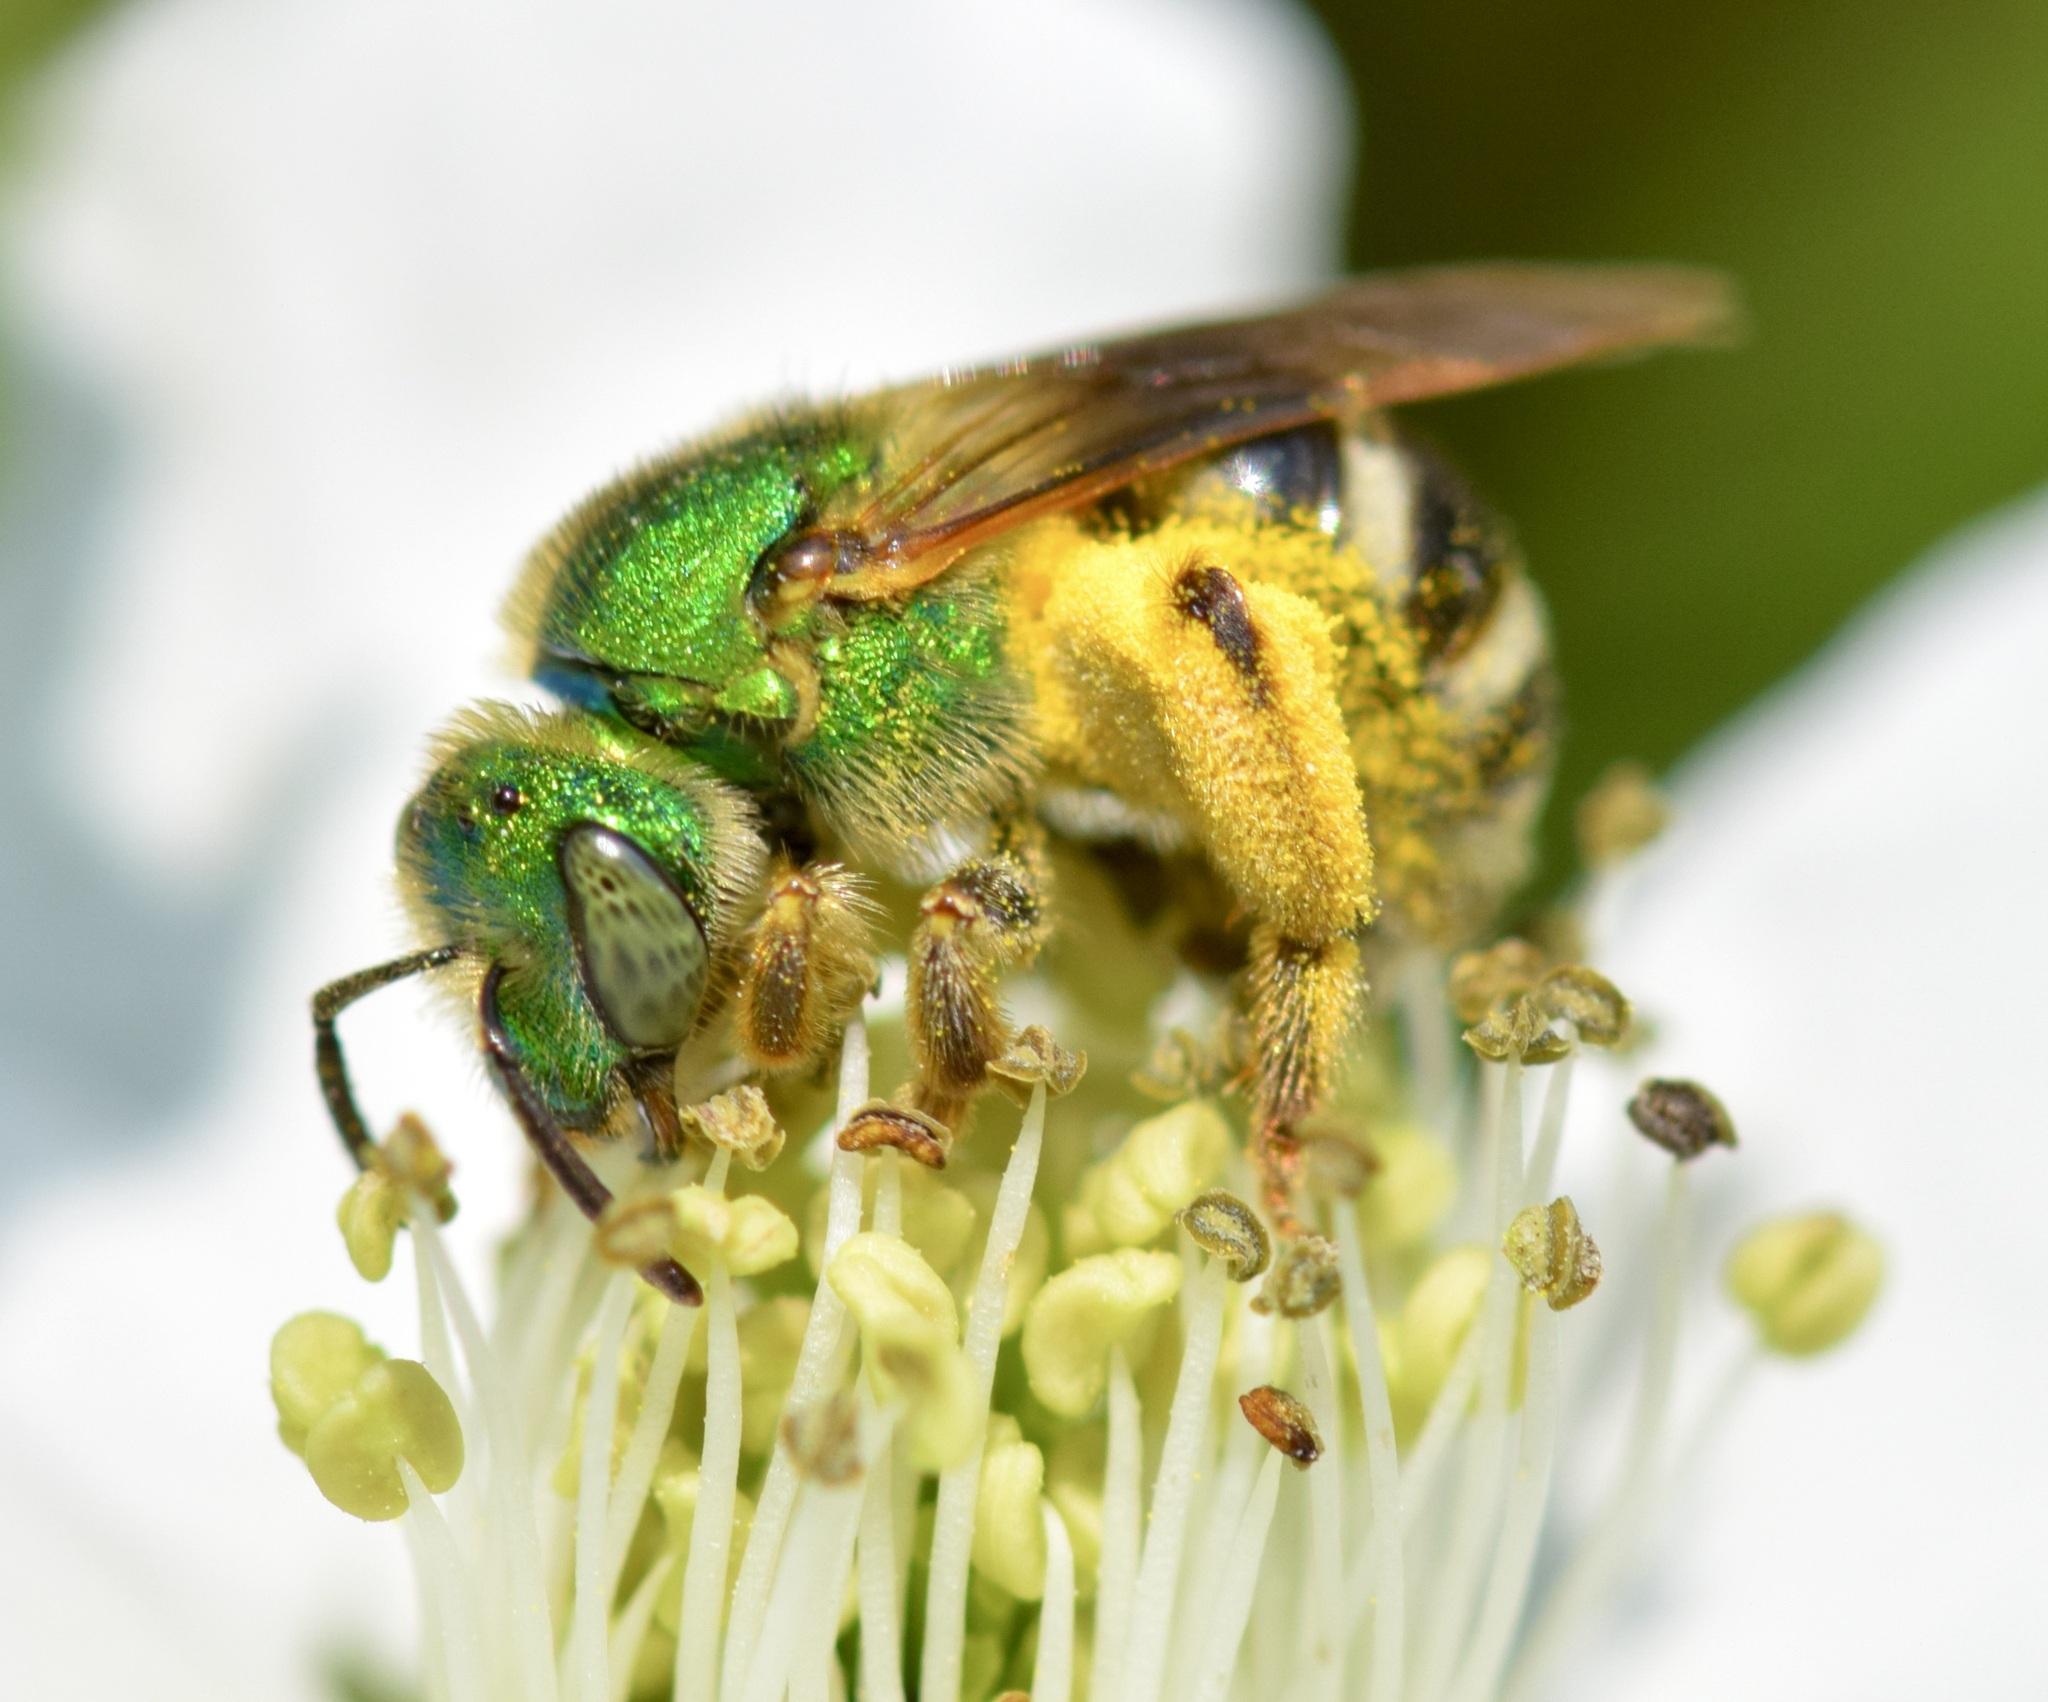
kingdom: Animalia
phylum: Arthropoda
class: Insecta
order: Hymenoptera
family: Halictidae
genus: Agapostemon
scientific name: Agapostemon virescens
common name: Bicolored striped sweat bee
